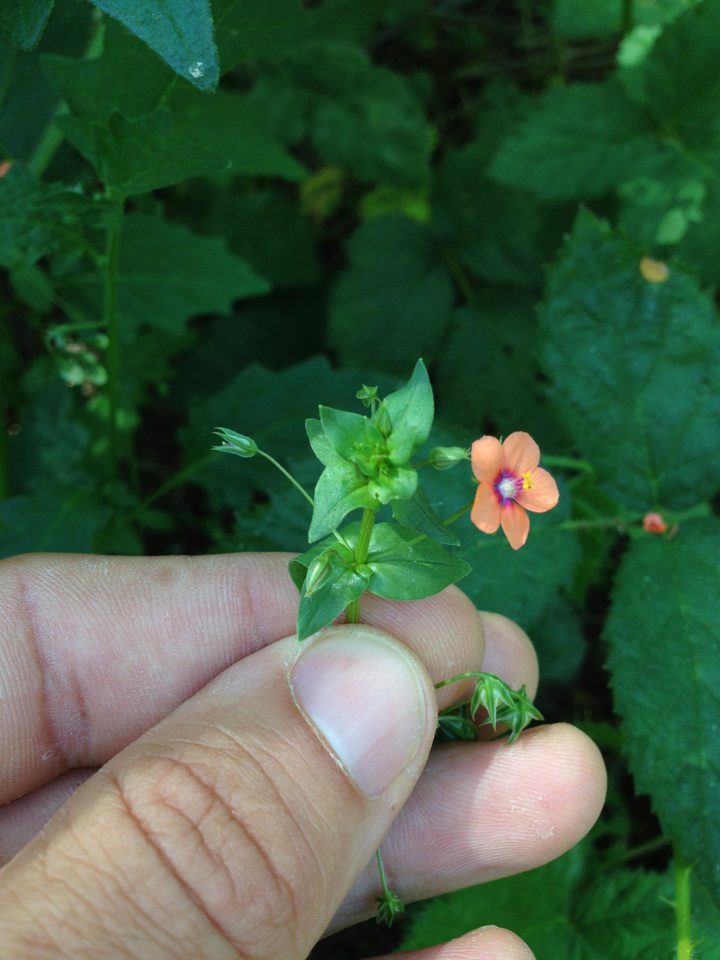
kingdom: Plantae
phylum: Tracheophyta
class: Magnoliopsida
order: Ericales
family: Primulaceae
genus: Lysimachia
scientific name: Lysimachia arvensis
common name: Scarlet pimpernel
